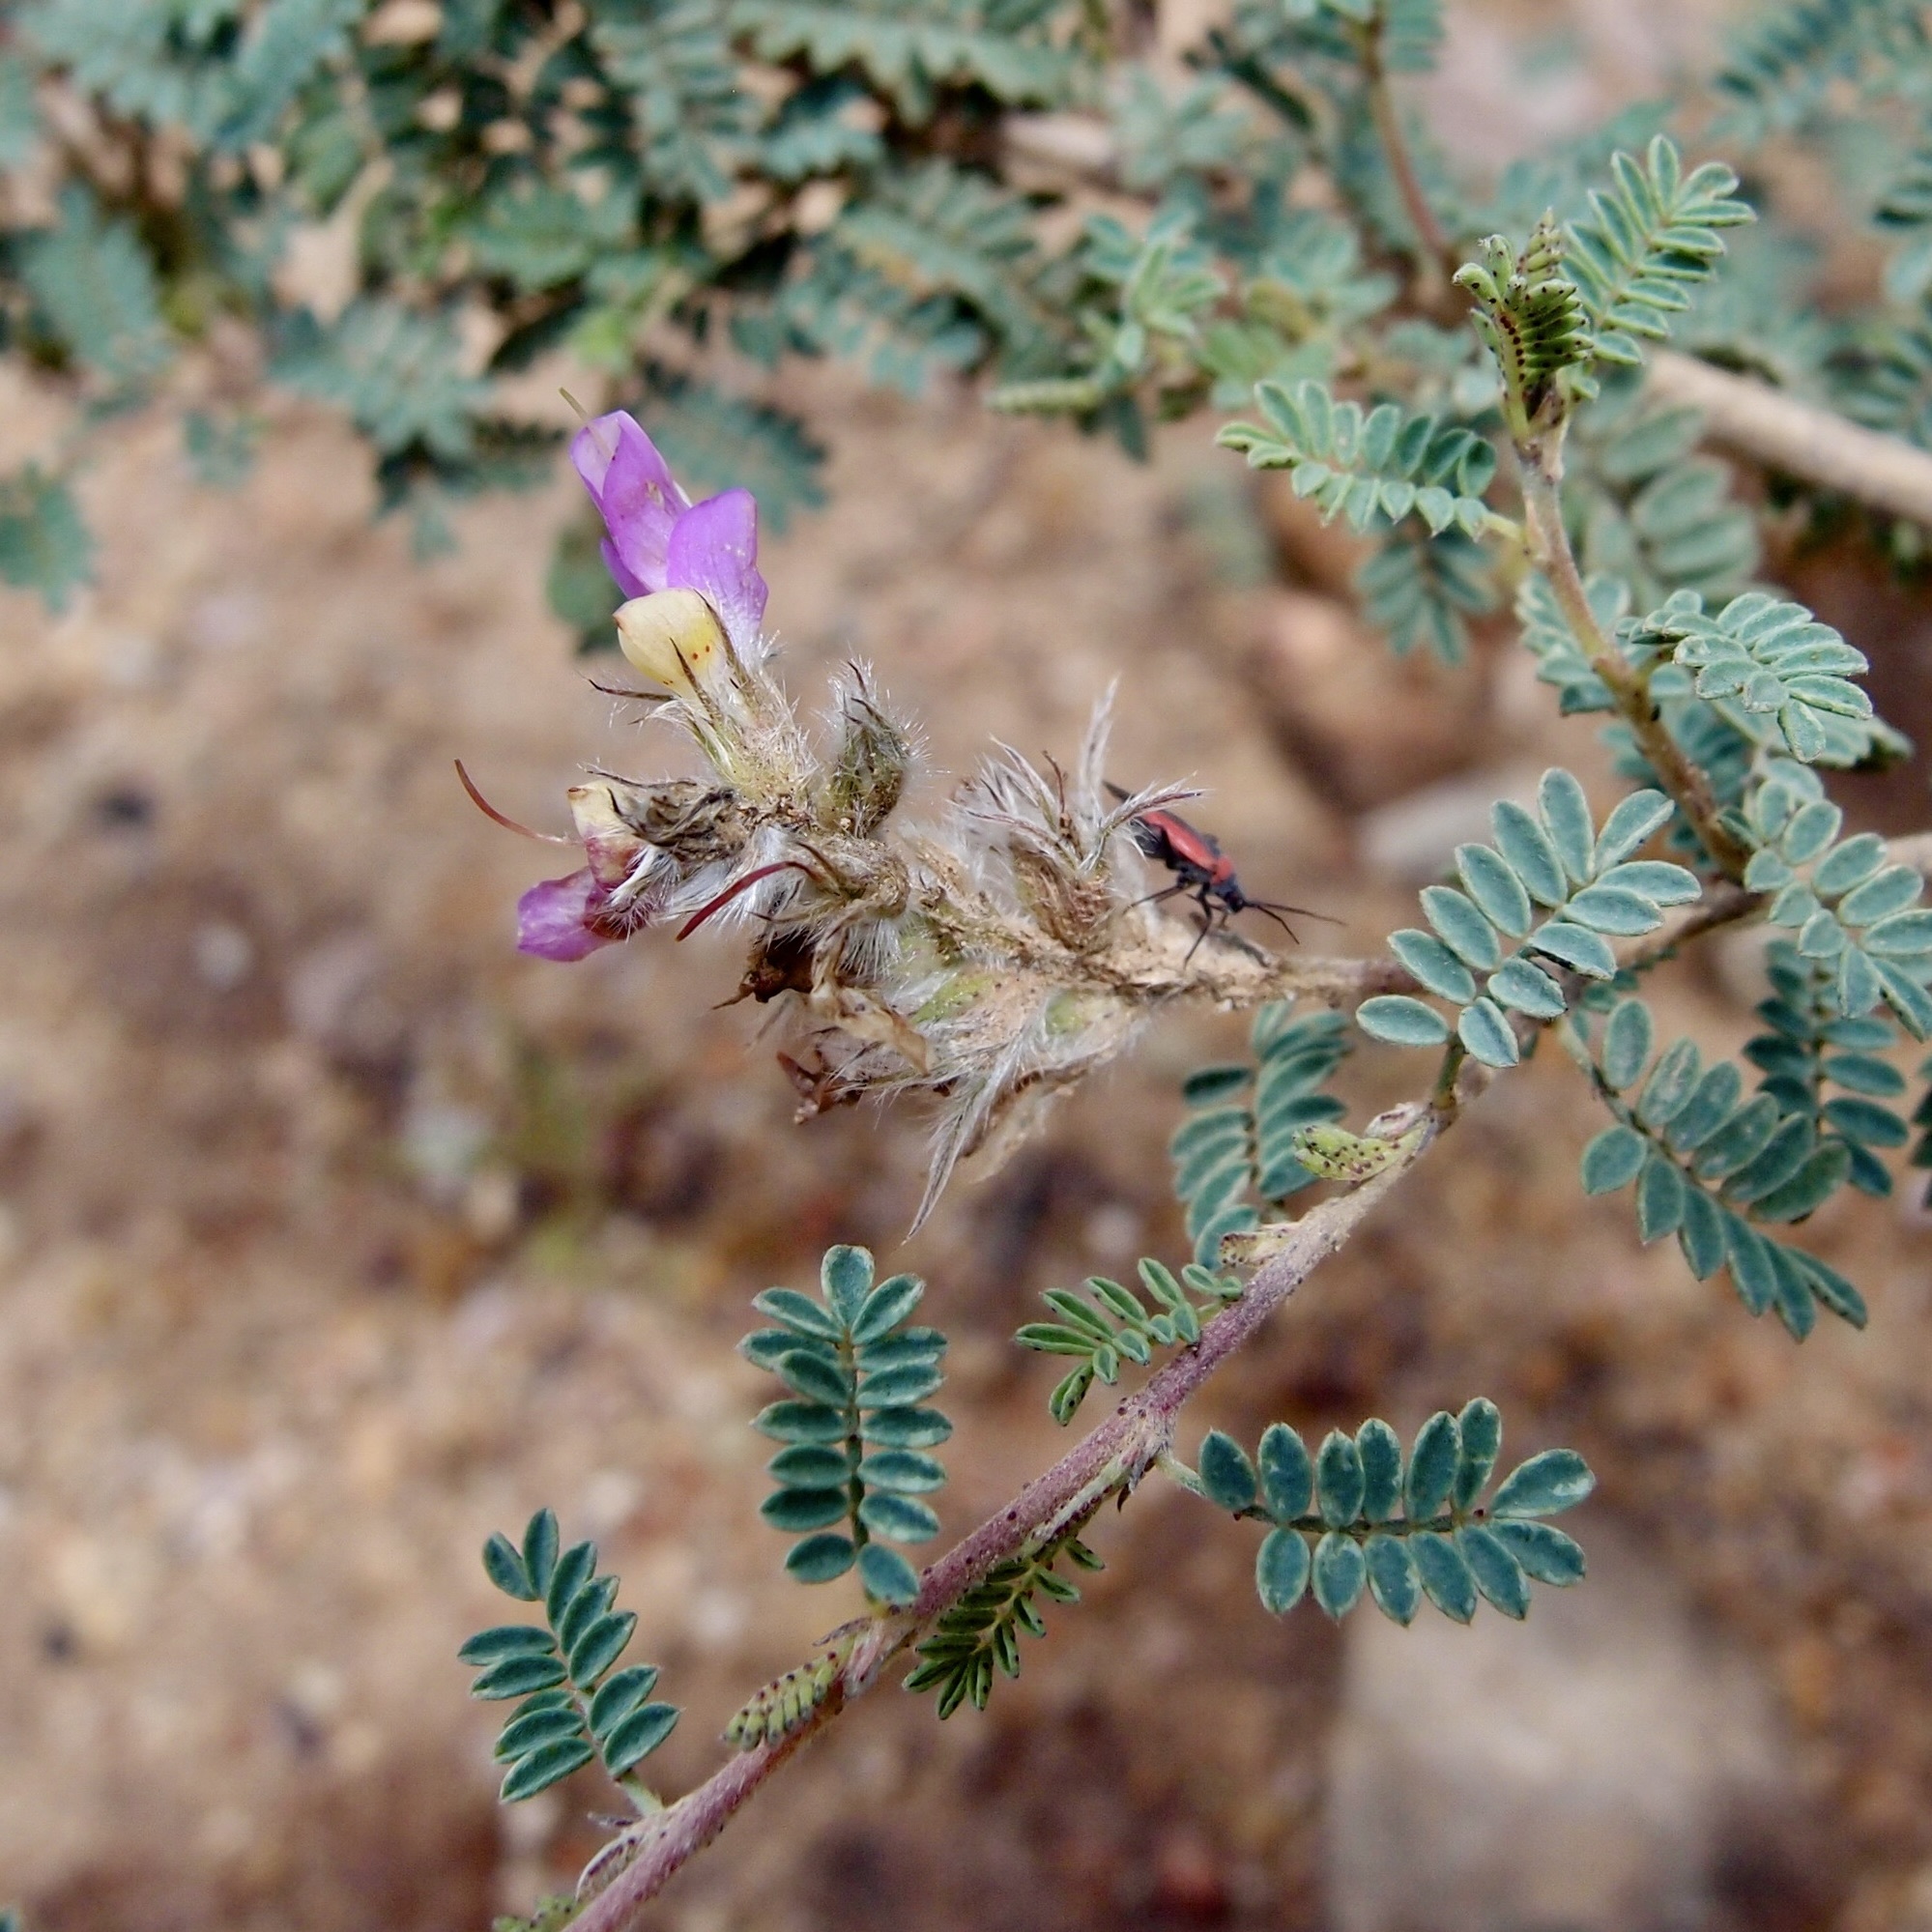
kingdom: Plantae
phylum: Tracheophyta
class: Magnoliopsida
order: Fabales
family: Fabaceae
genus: Dalea
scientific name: Dalea versicolor
